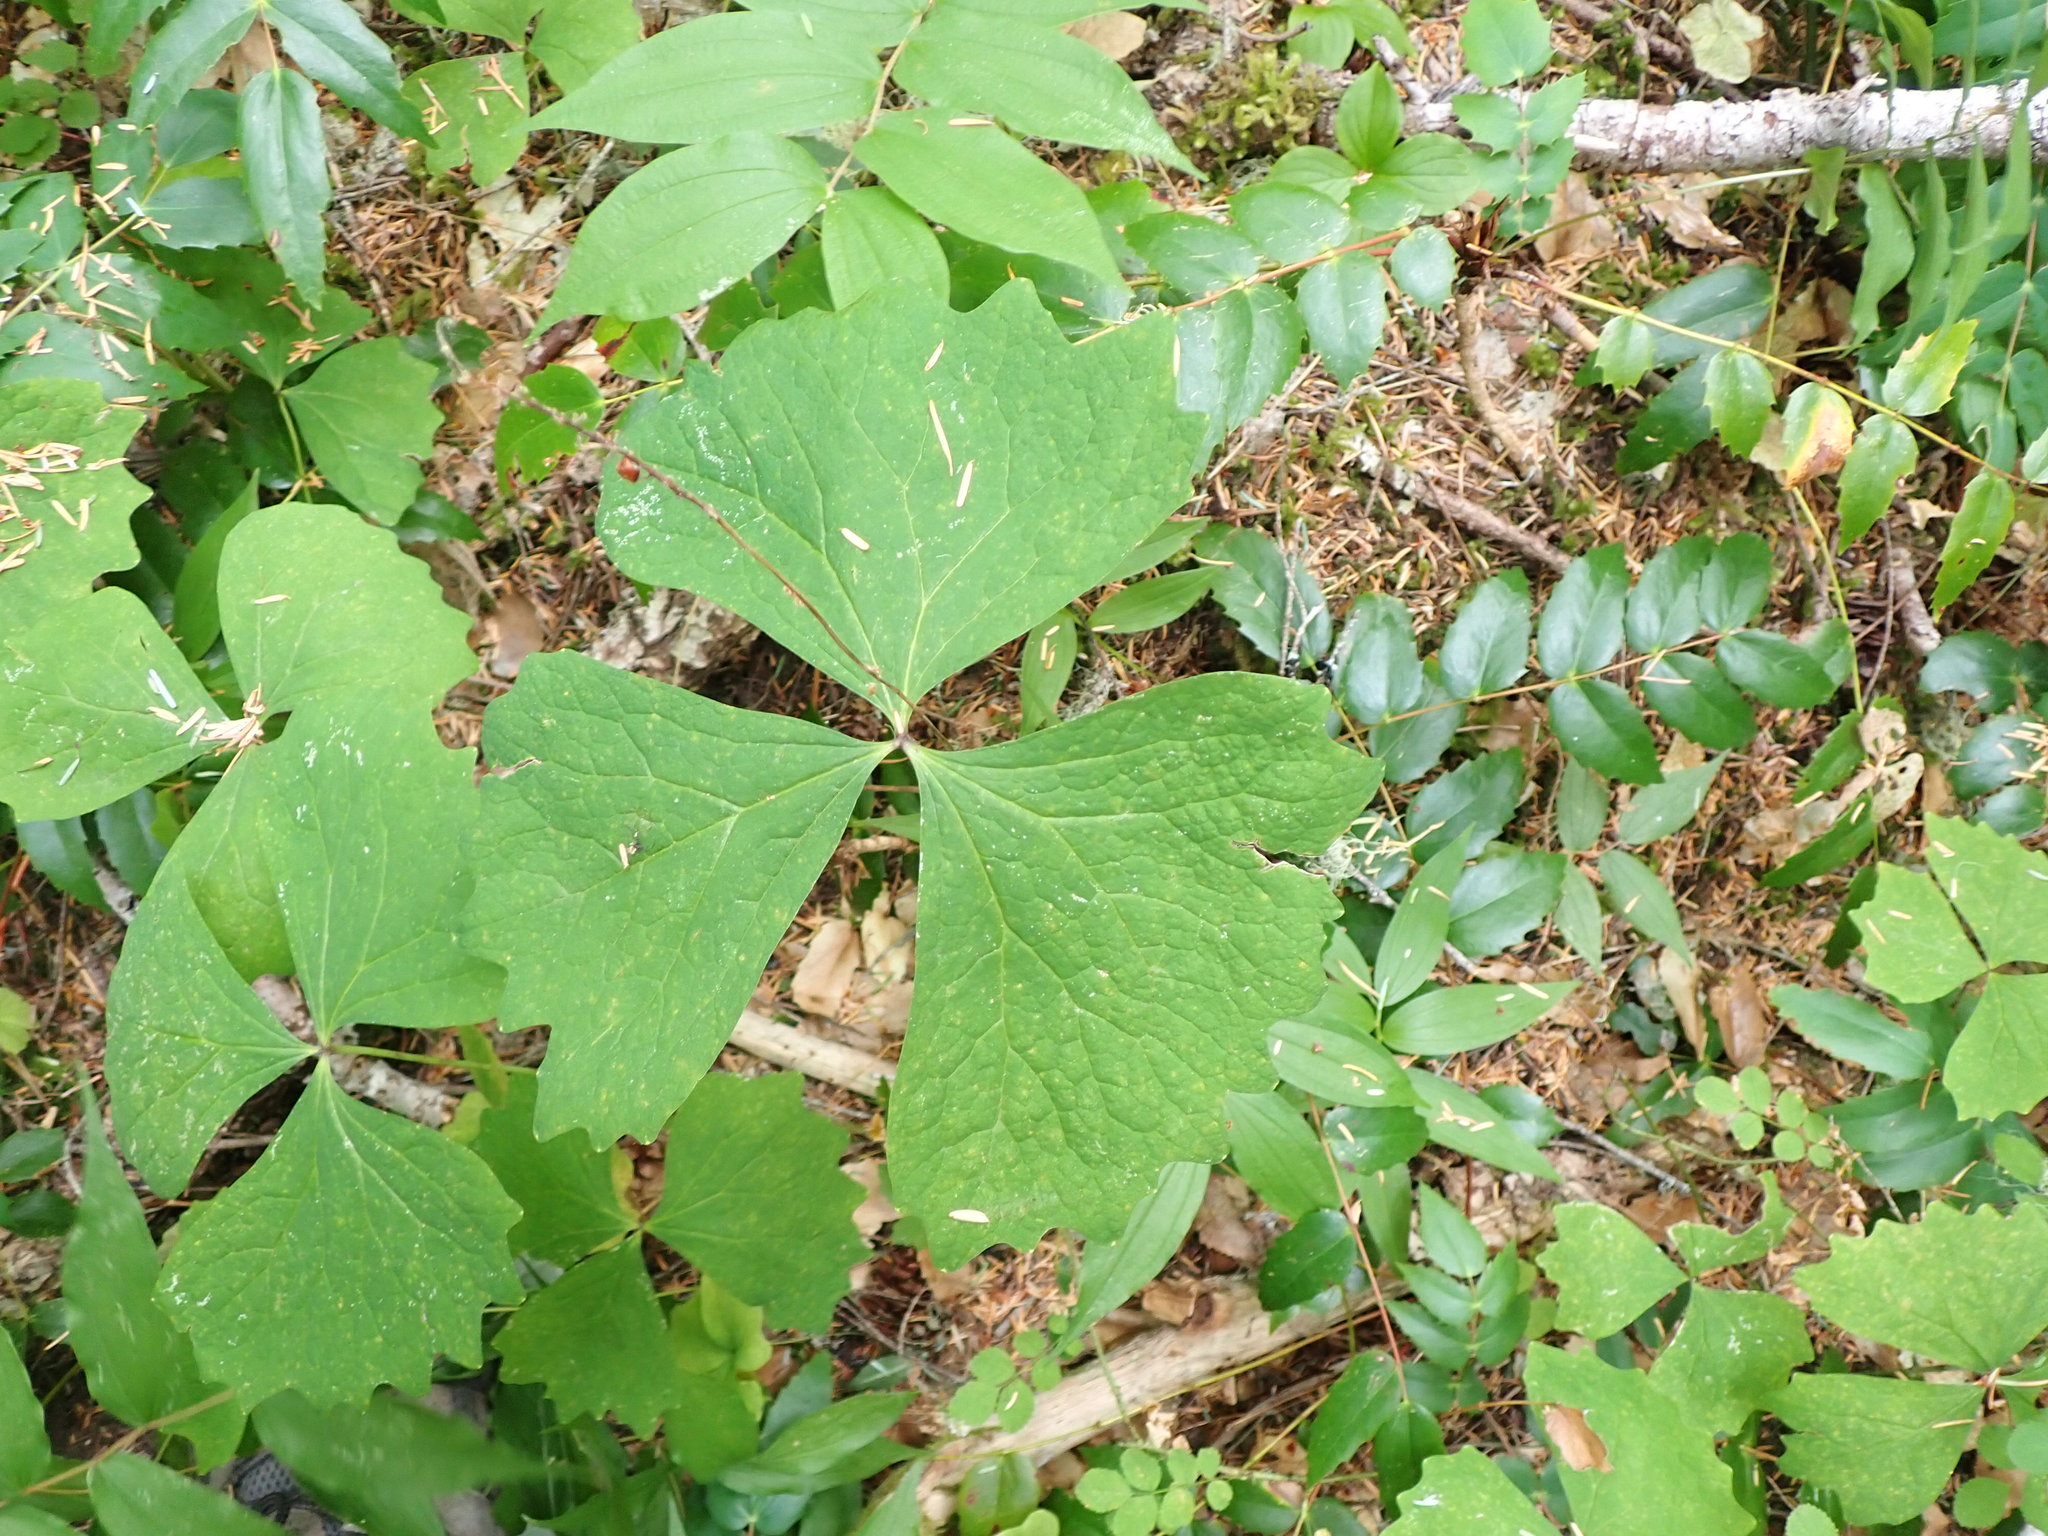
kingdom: Plantae
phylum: Tracheophyta
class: Magnoliopsida
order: Ranunculales
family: Berberidaceae
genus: Achlys
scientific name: Achlys triphylla
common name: Vanilla-leaf
